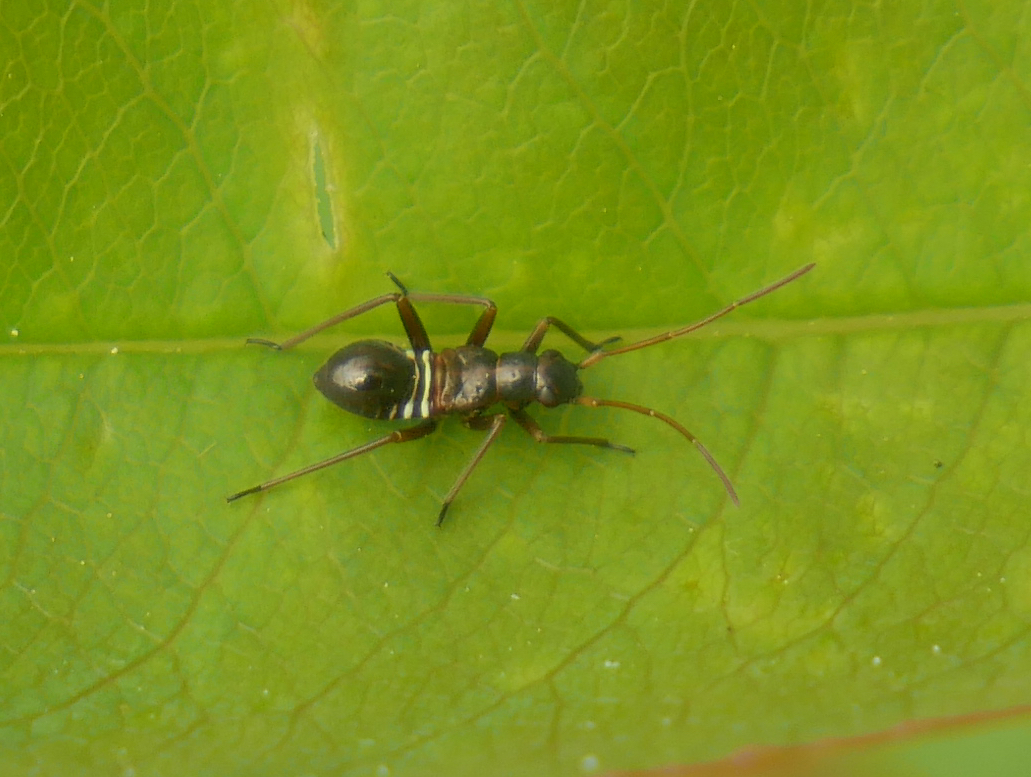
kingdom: Animalia
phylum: Arthropoda
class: Insecta
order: Hemiptera
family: Miridae
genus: Miris
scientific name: Miris striatus
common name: Fine streaked bugkin
